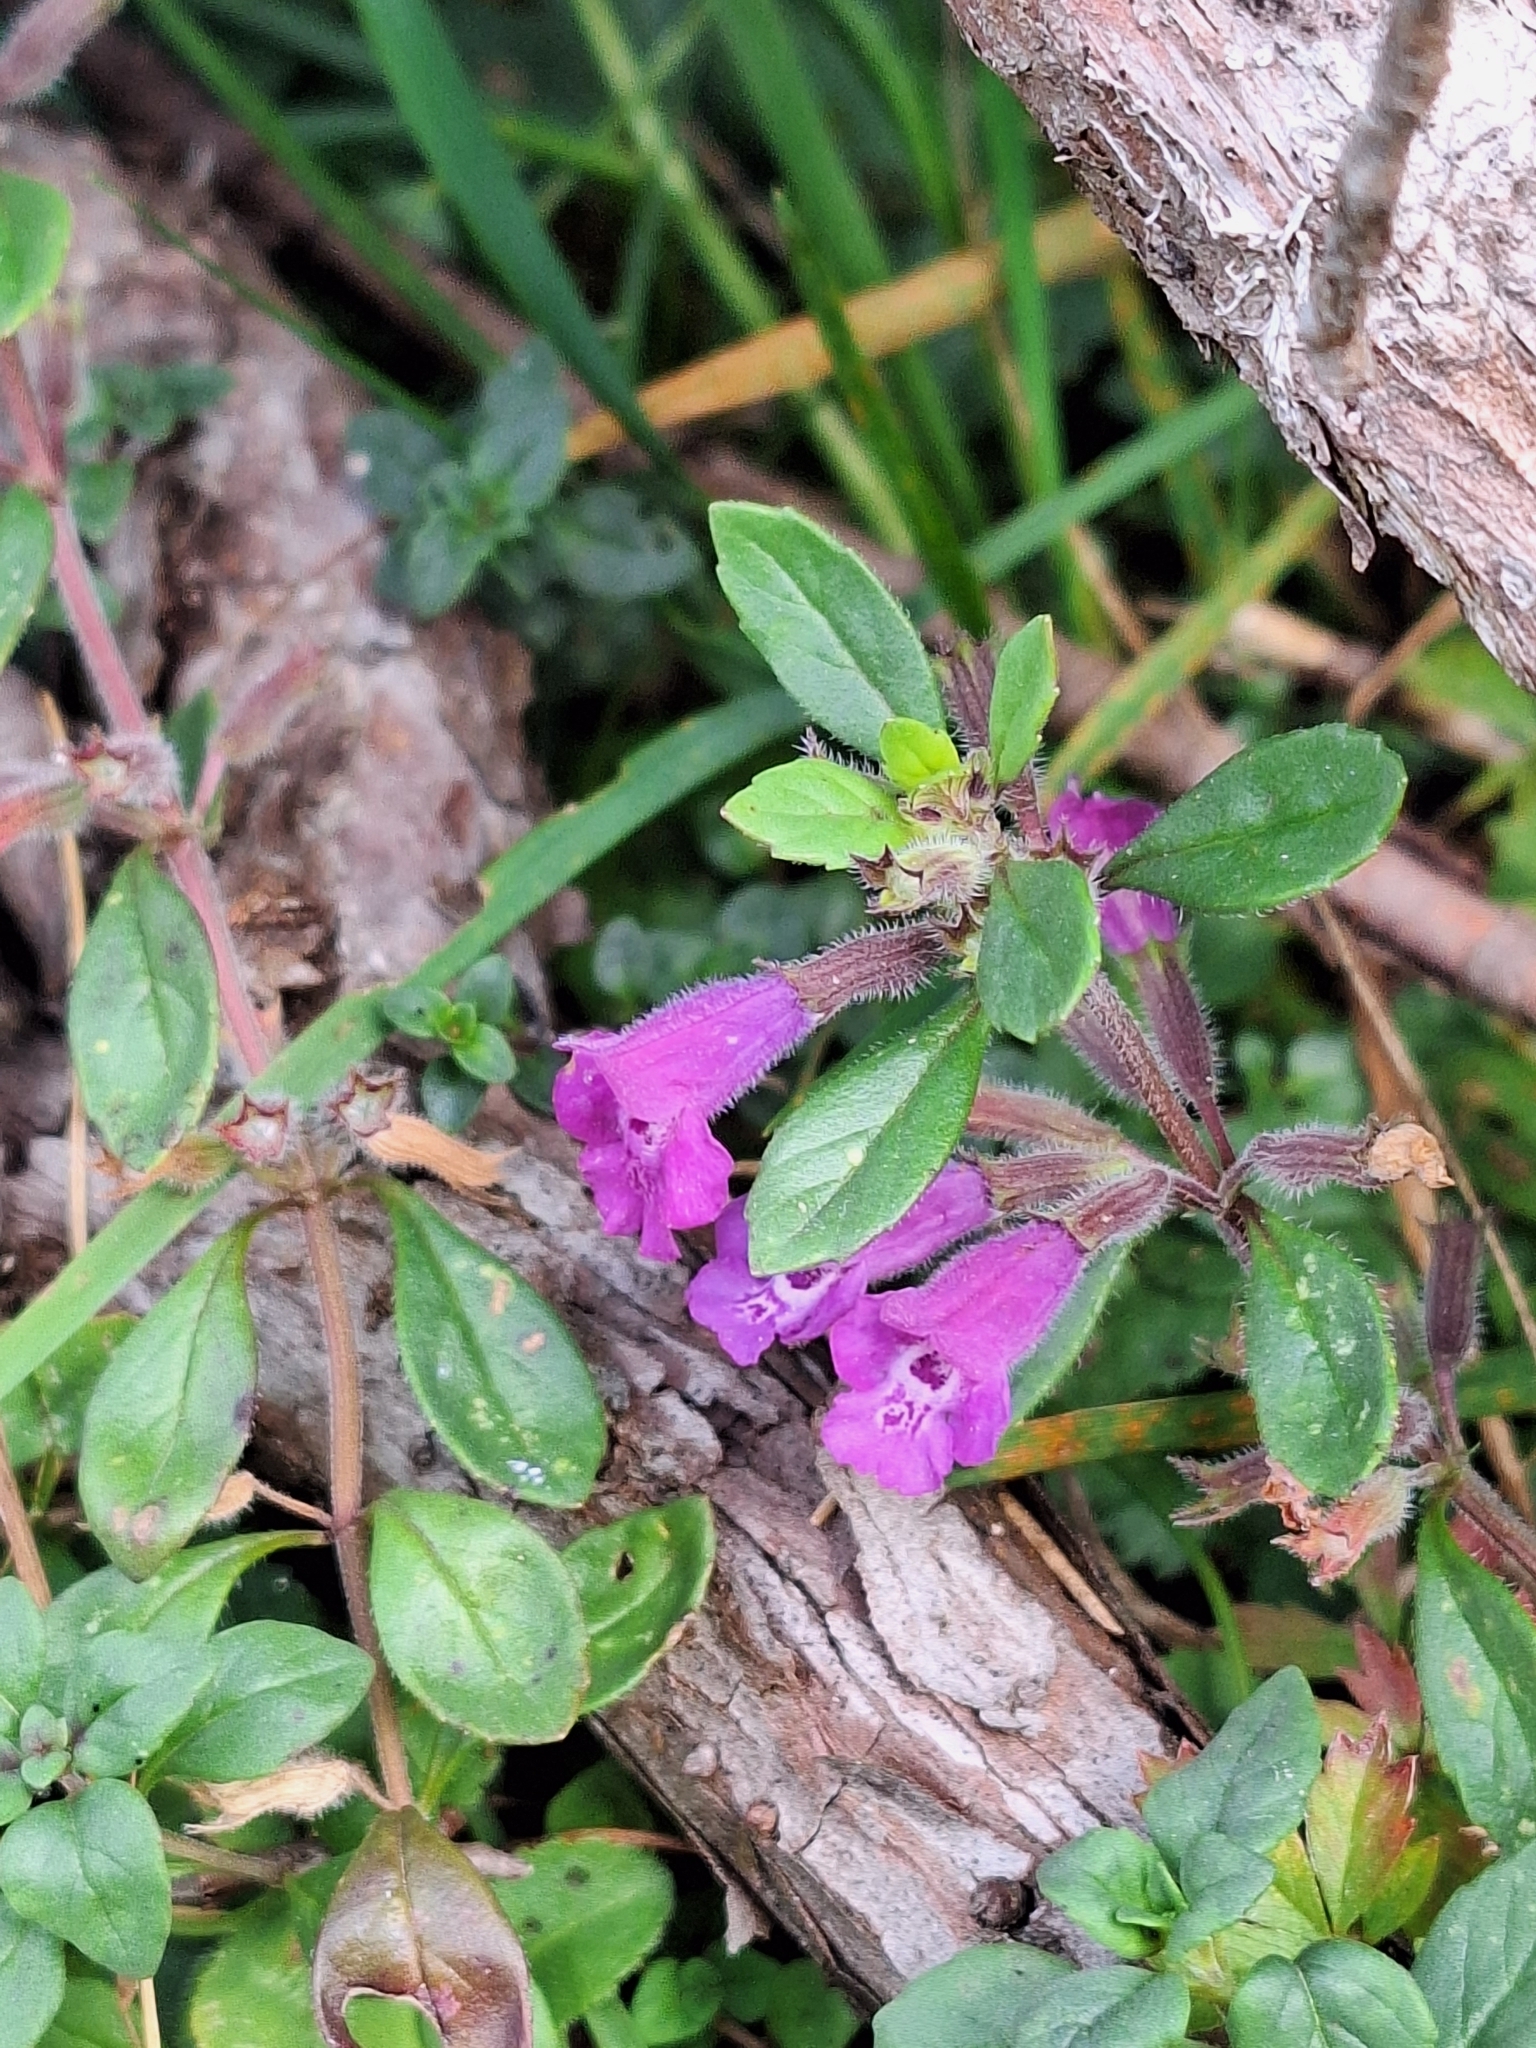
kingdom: Plantae
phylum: Tracheophyta
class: Magnoliopsida
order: Lamiales
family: Lamiaceae
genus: Clinopodium
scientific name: Clinopodium alpinum
